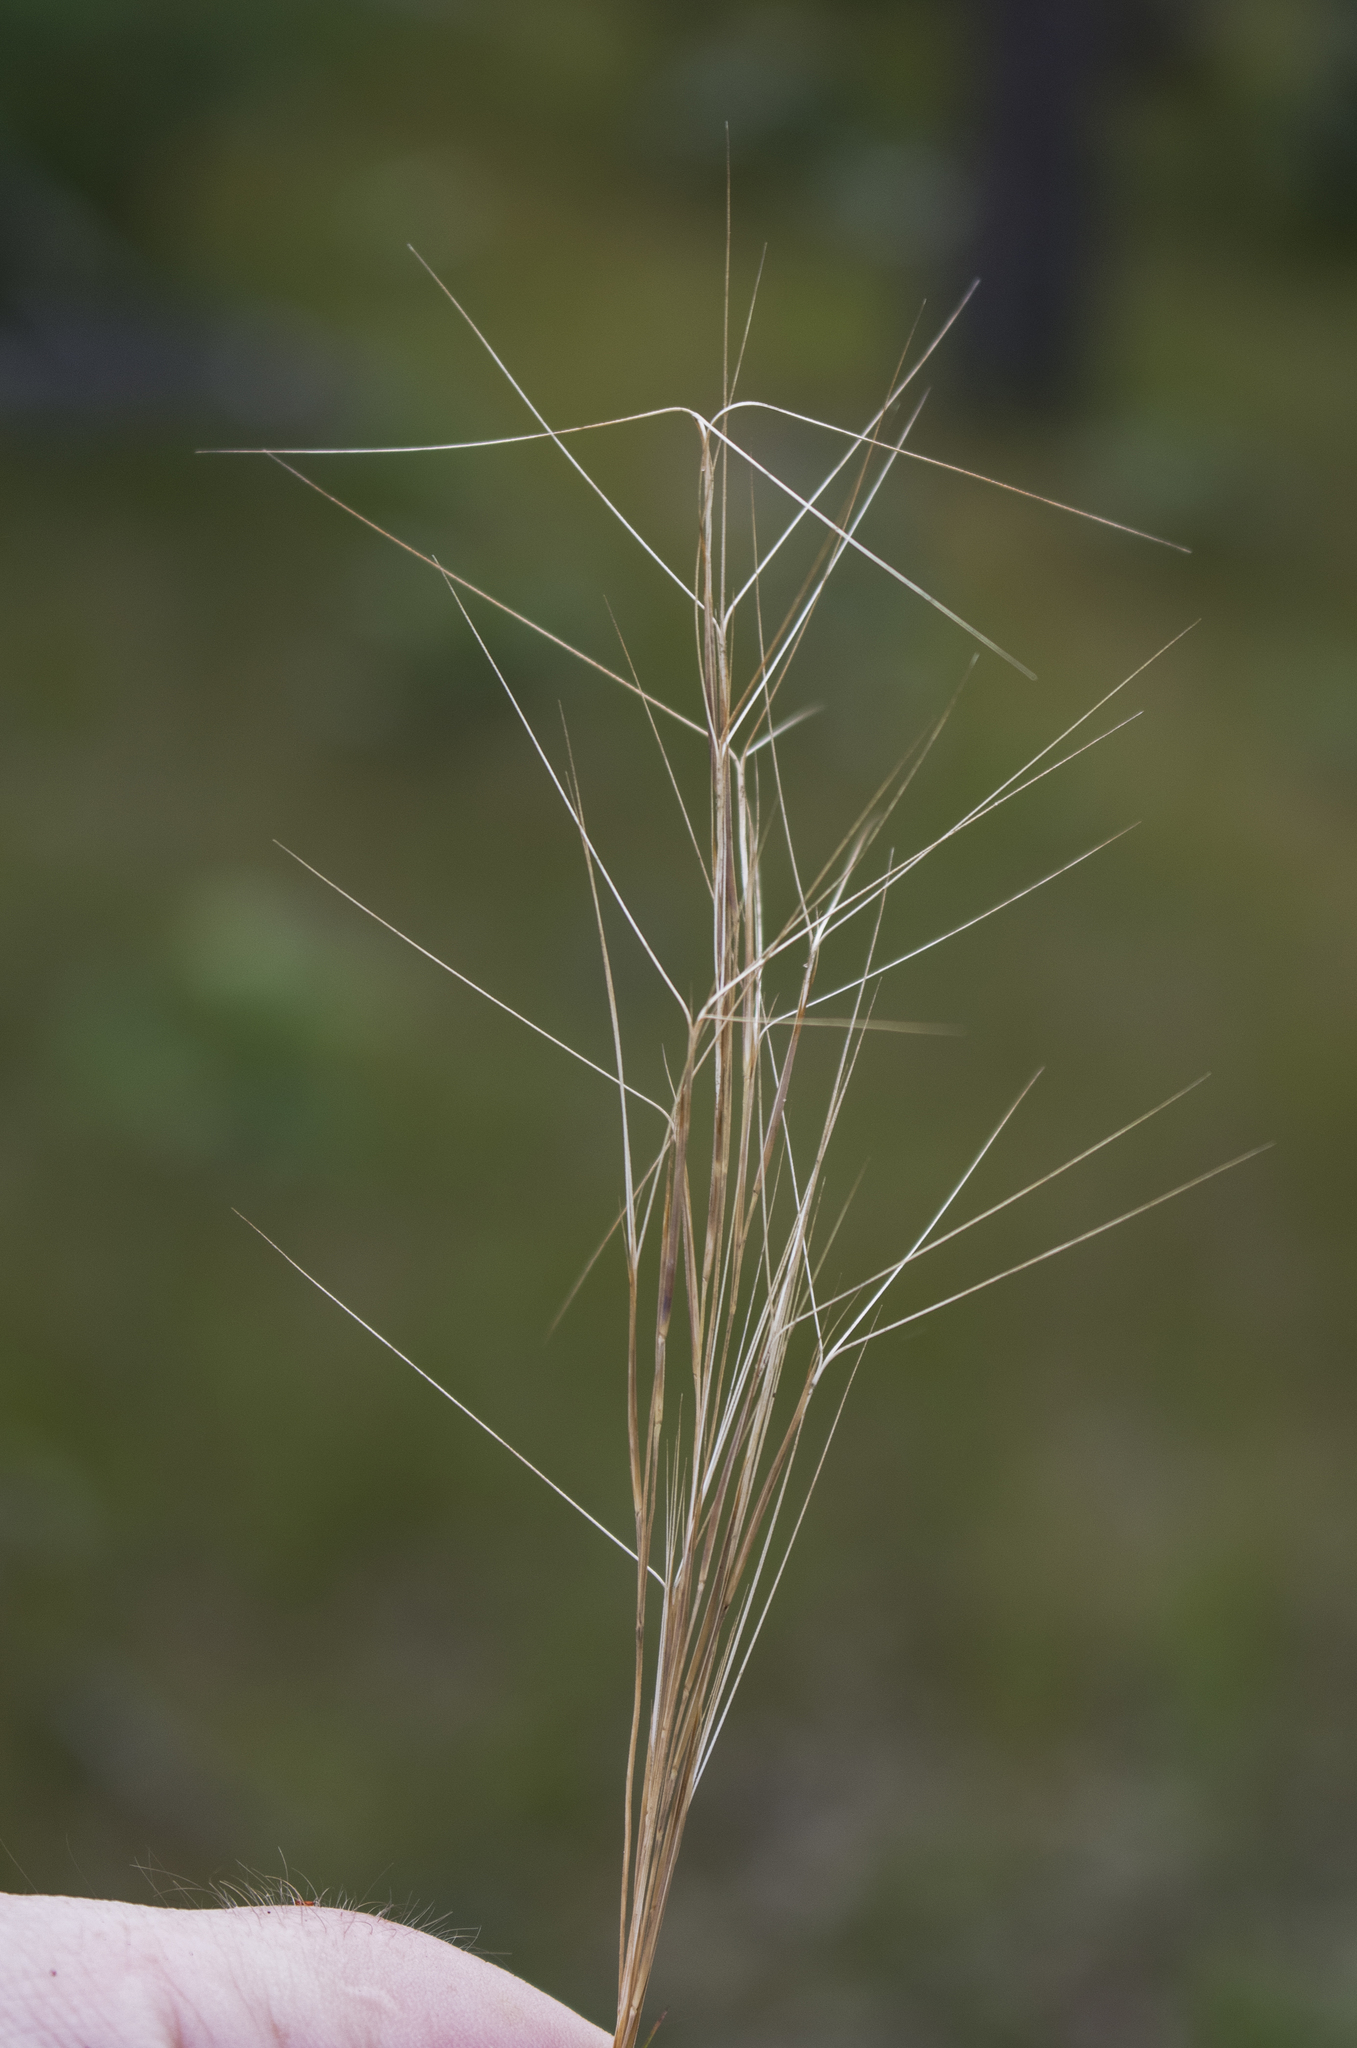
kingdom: Plantae
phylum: Tracheophyta
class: Liliopsida
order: Poales
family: Poaceae
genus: Aristida
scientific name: Aristida longespica
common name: Long-spiked triple-awned grass
